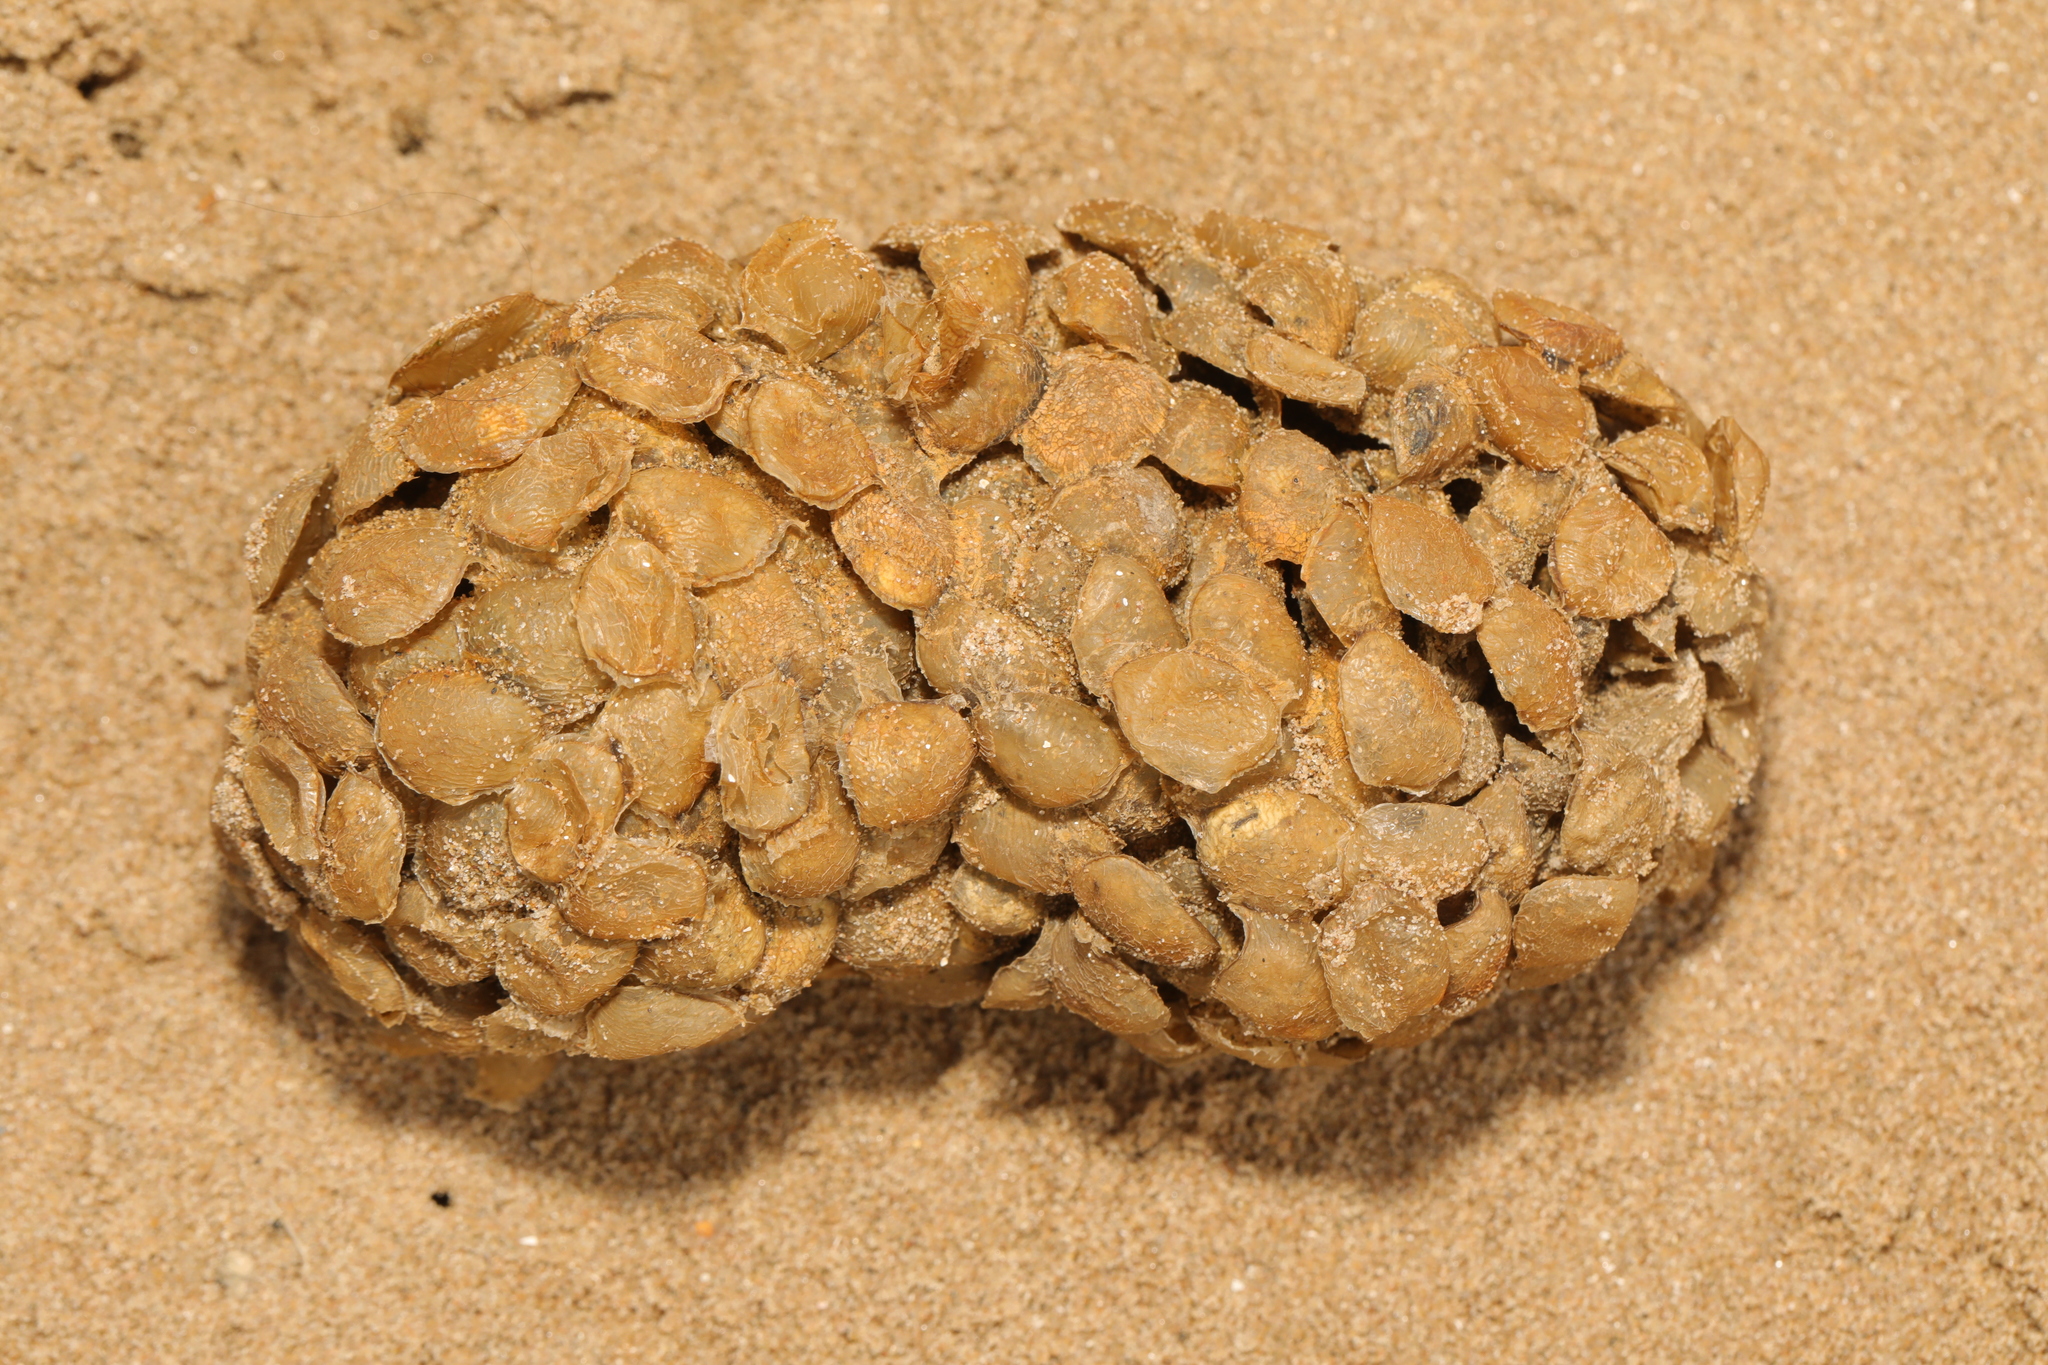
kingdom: Animalia
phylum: Mollusca
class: Gastropoda
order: Neogastropoda
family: Buccinidae
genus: Buccinum
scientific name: Buccinum undatum
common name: Common whelk
